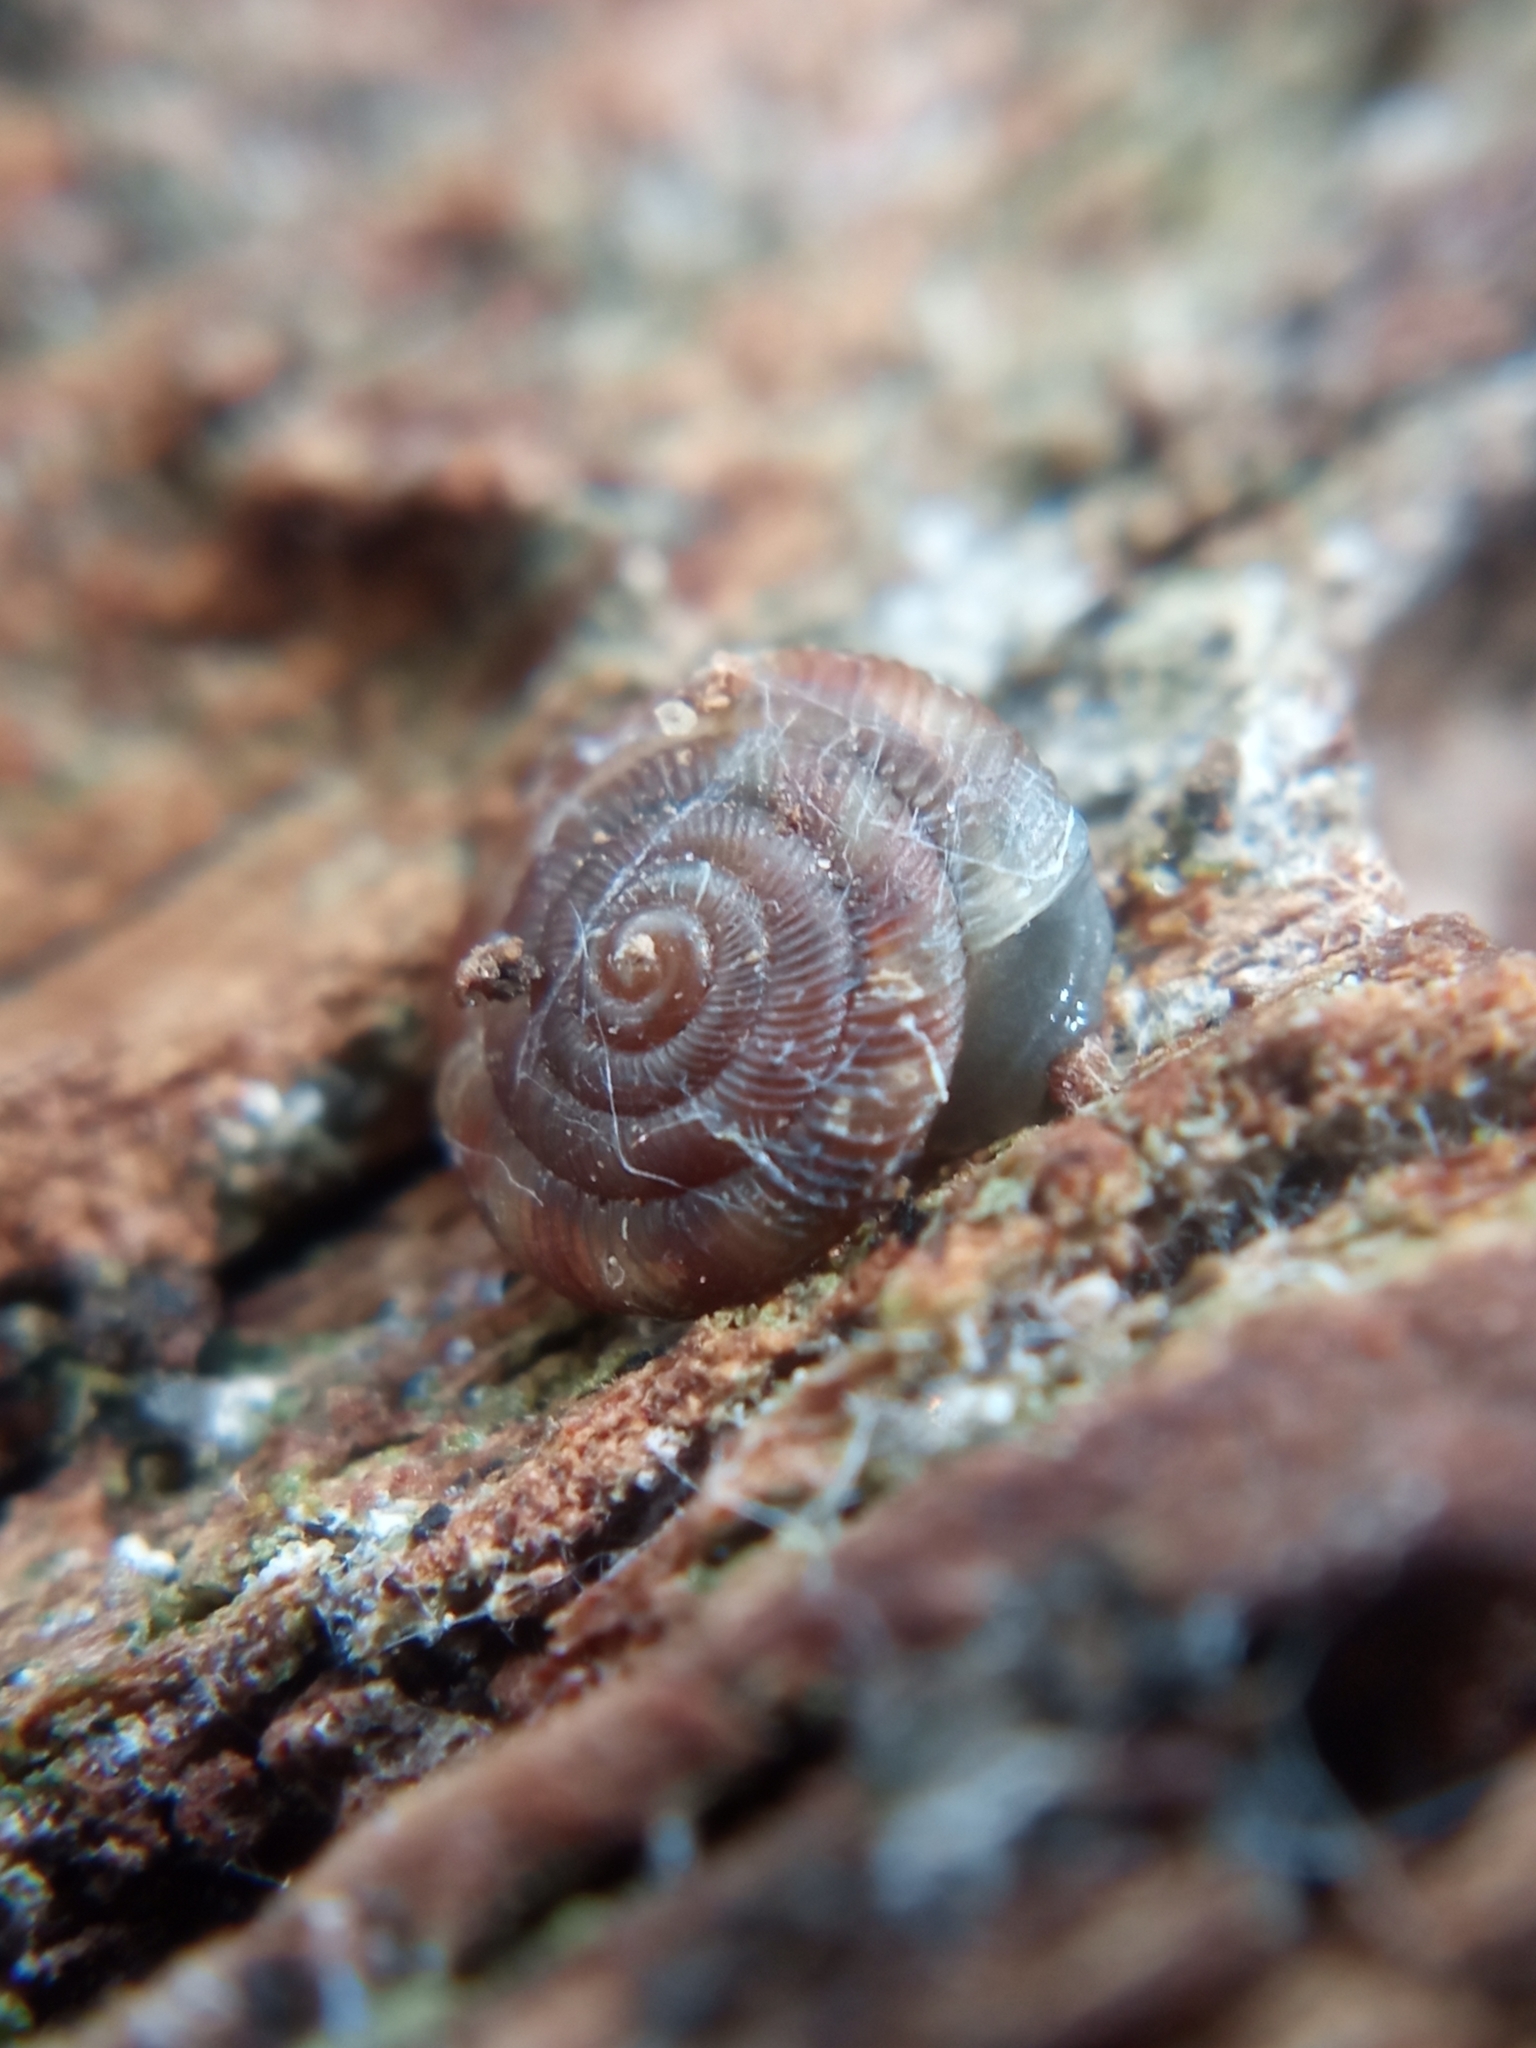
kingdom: Animalia
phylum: Mollusca
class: Gastropoda
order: Stylommatophora
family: Discidae
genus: Discus
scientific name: Discus rotundatus
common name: Rounded snail
